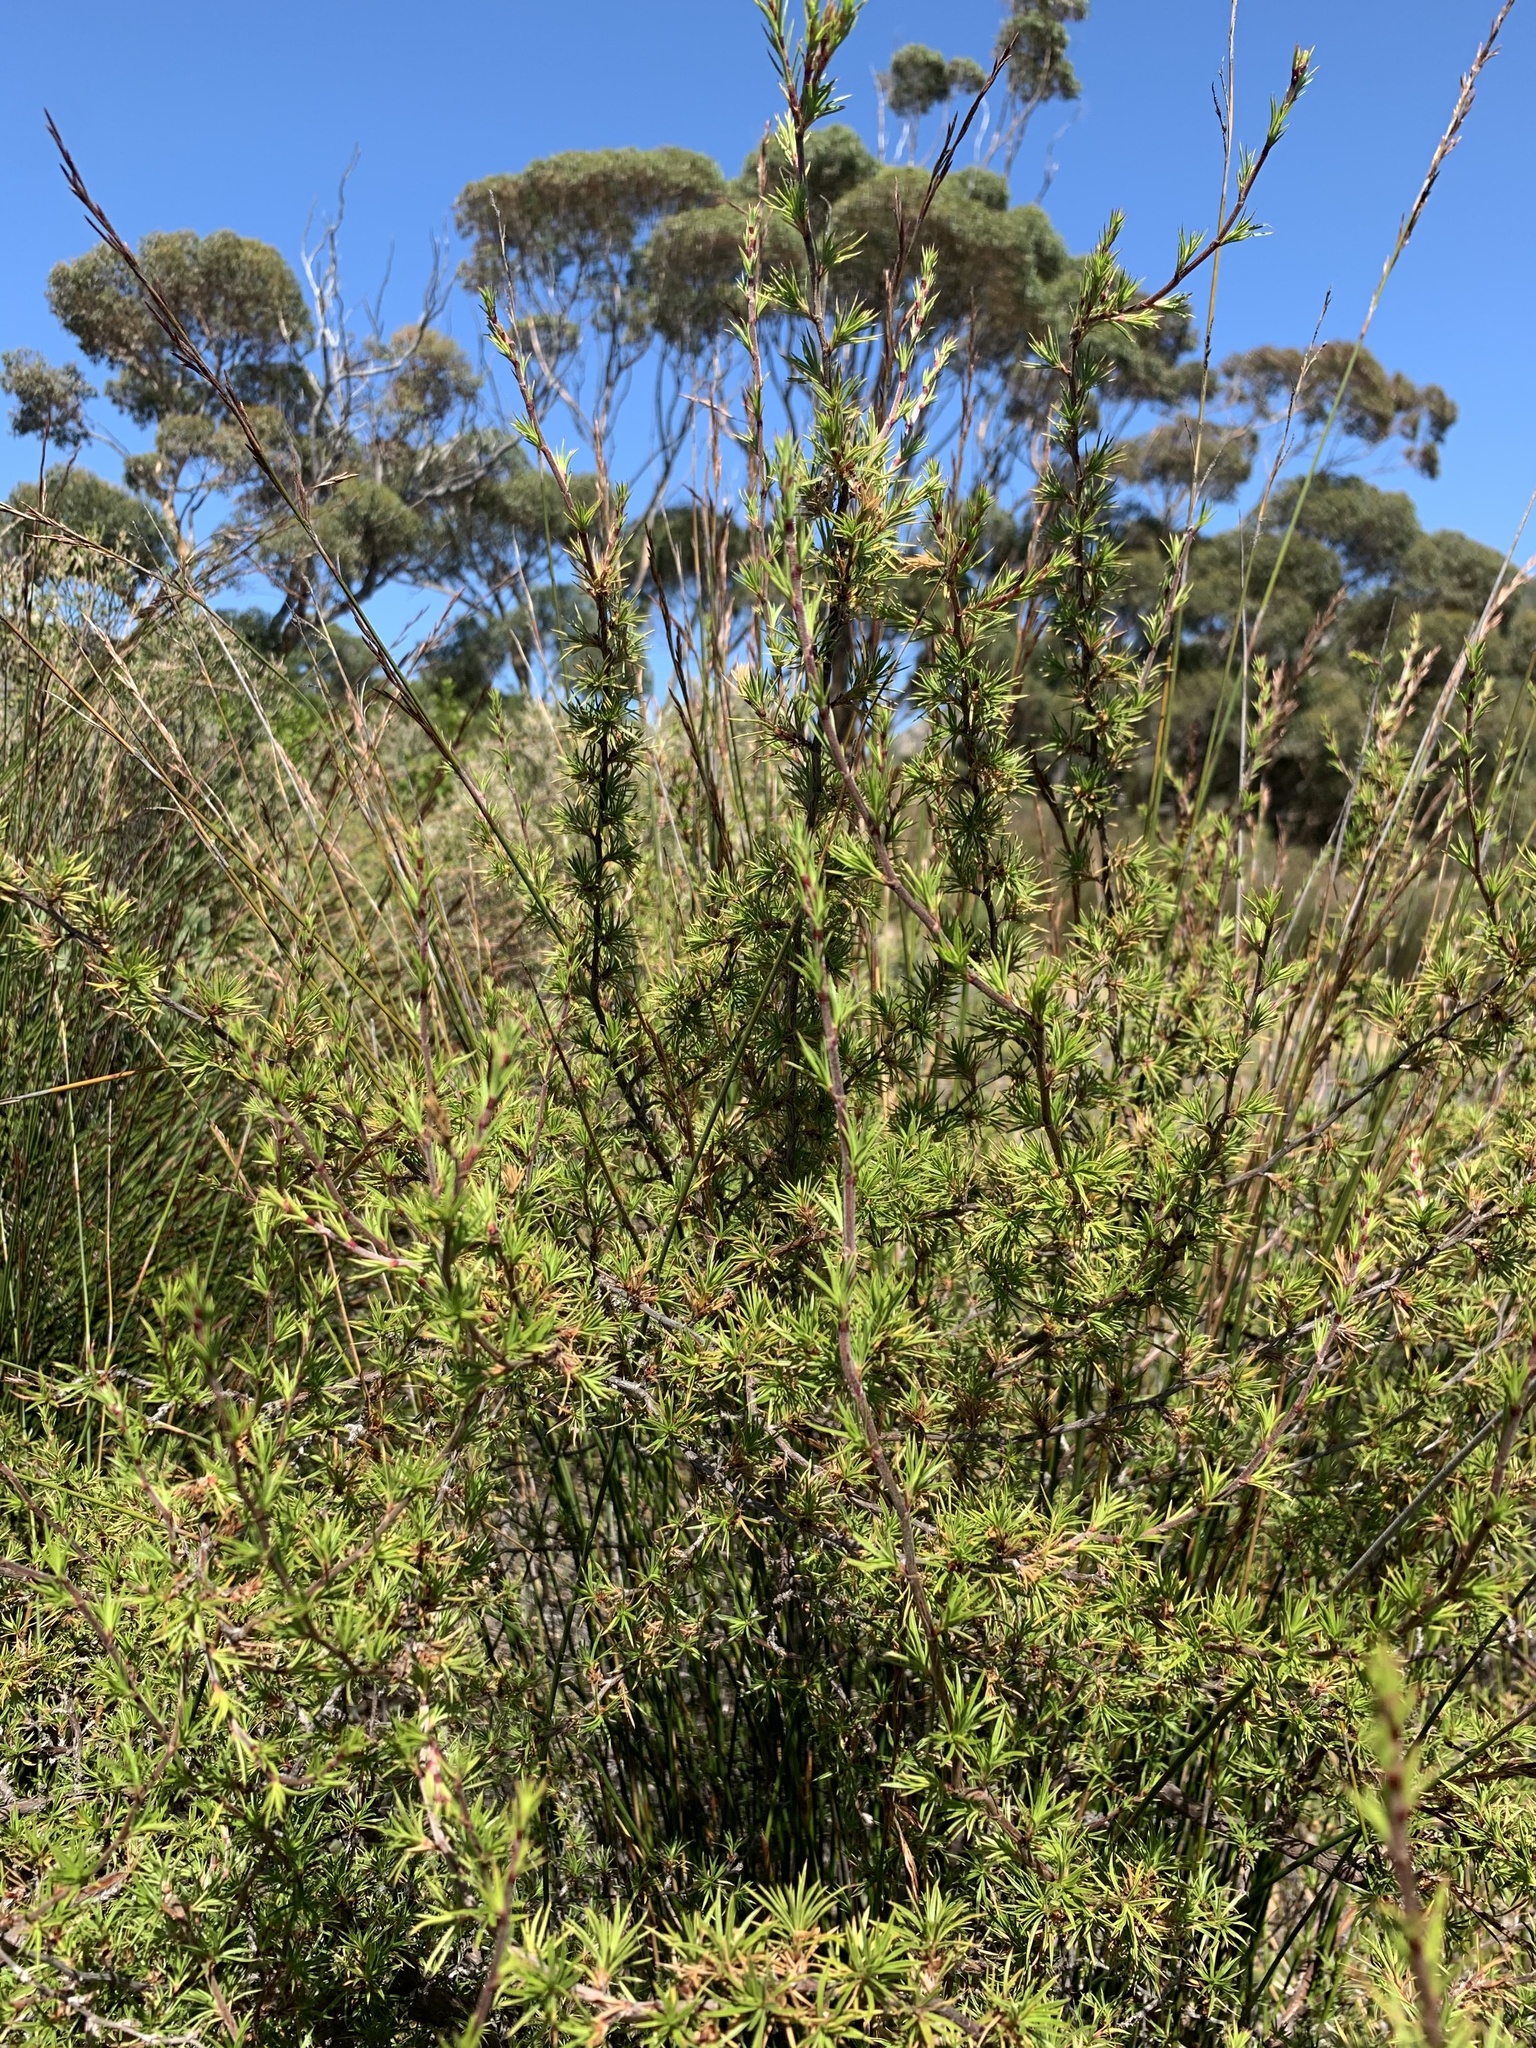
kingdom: Plantae
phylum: Tracheophyta
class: Magnoliopsida
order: Rosales
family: Rosaceae
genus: Cliffortia
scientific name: Cliffortia atrata
